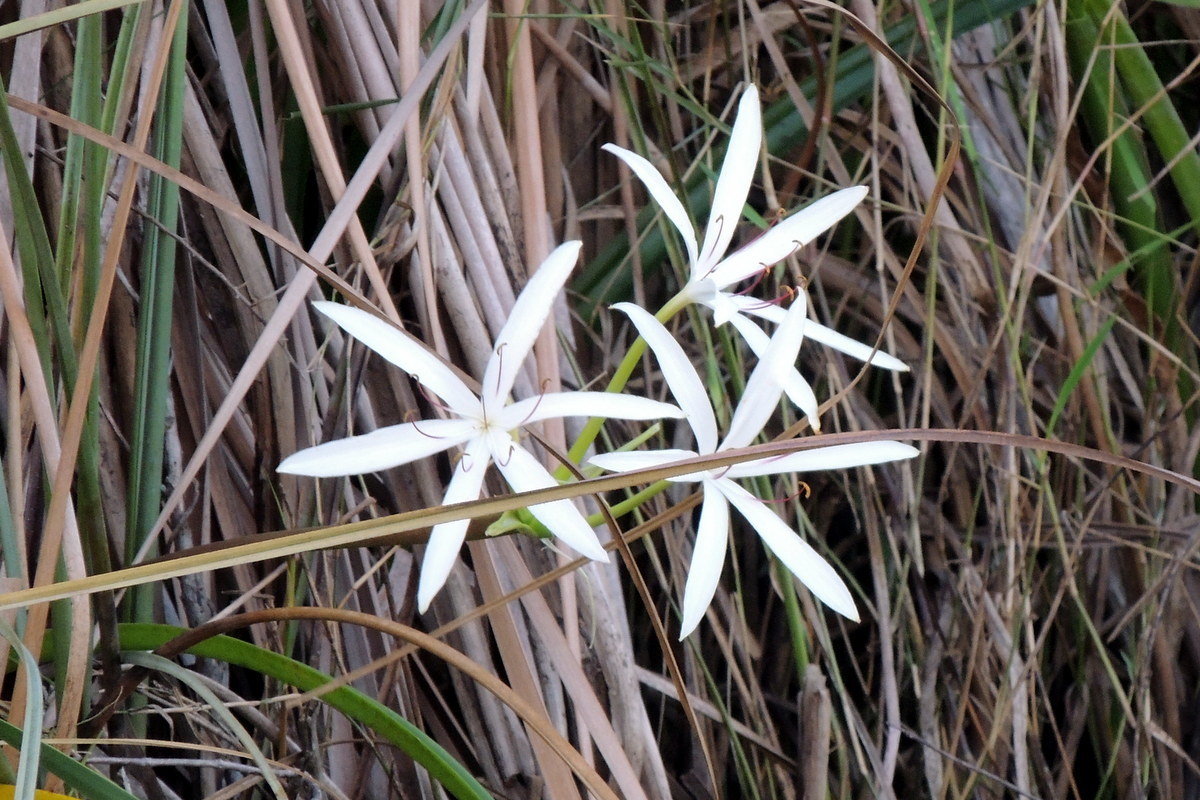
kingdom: Plantae
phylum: Tracheophyta
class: Liliopsida
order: Asparagales
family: Amaryllidaceae
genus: Crinum
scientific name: Crinum americanum
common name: Florida swamp-lily
